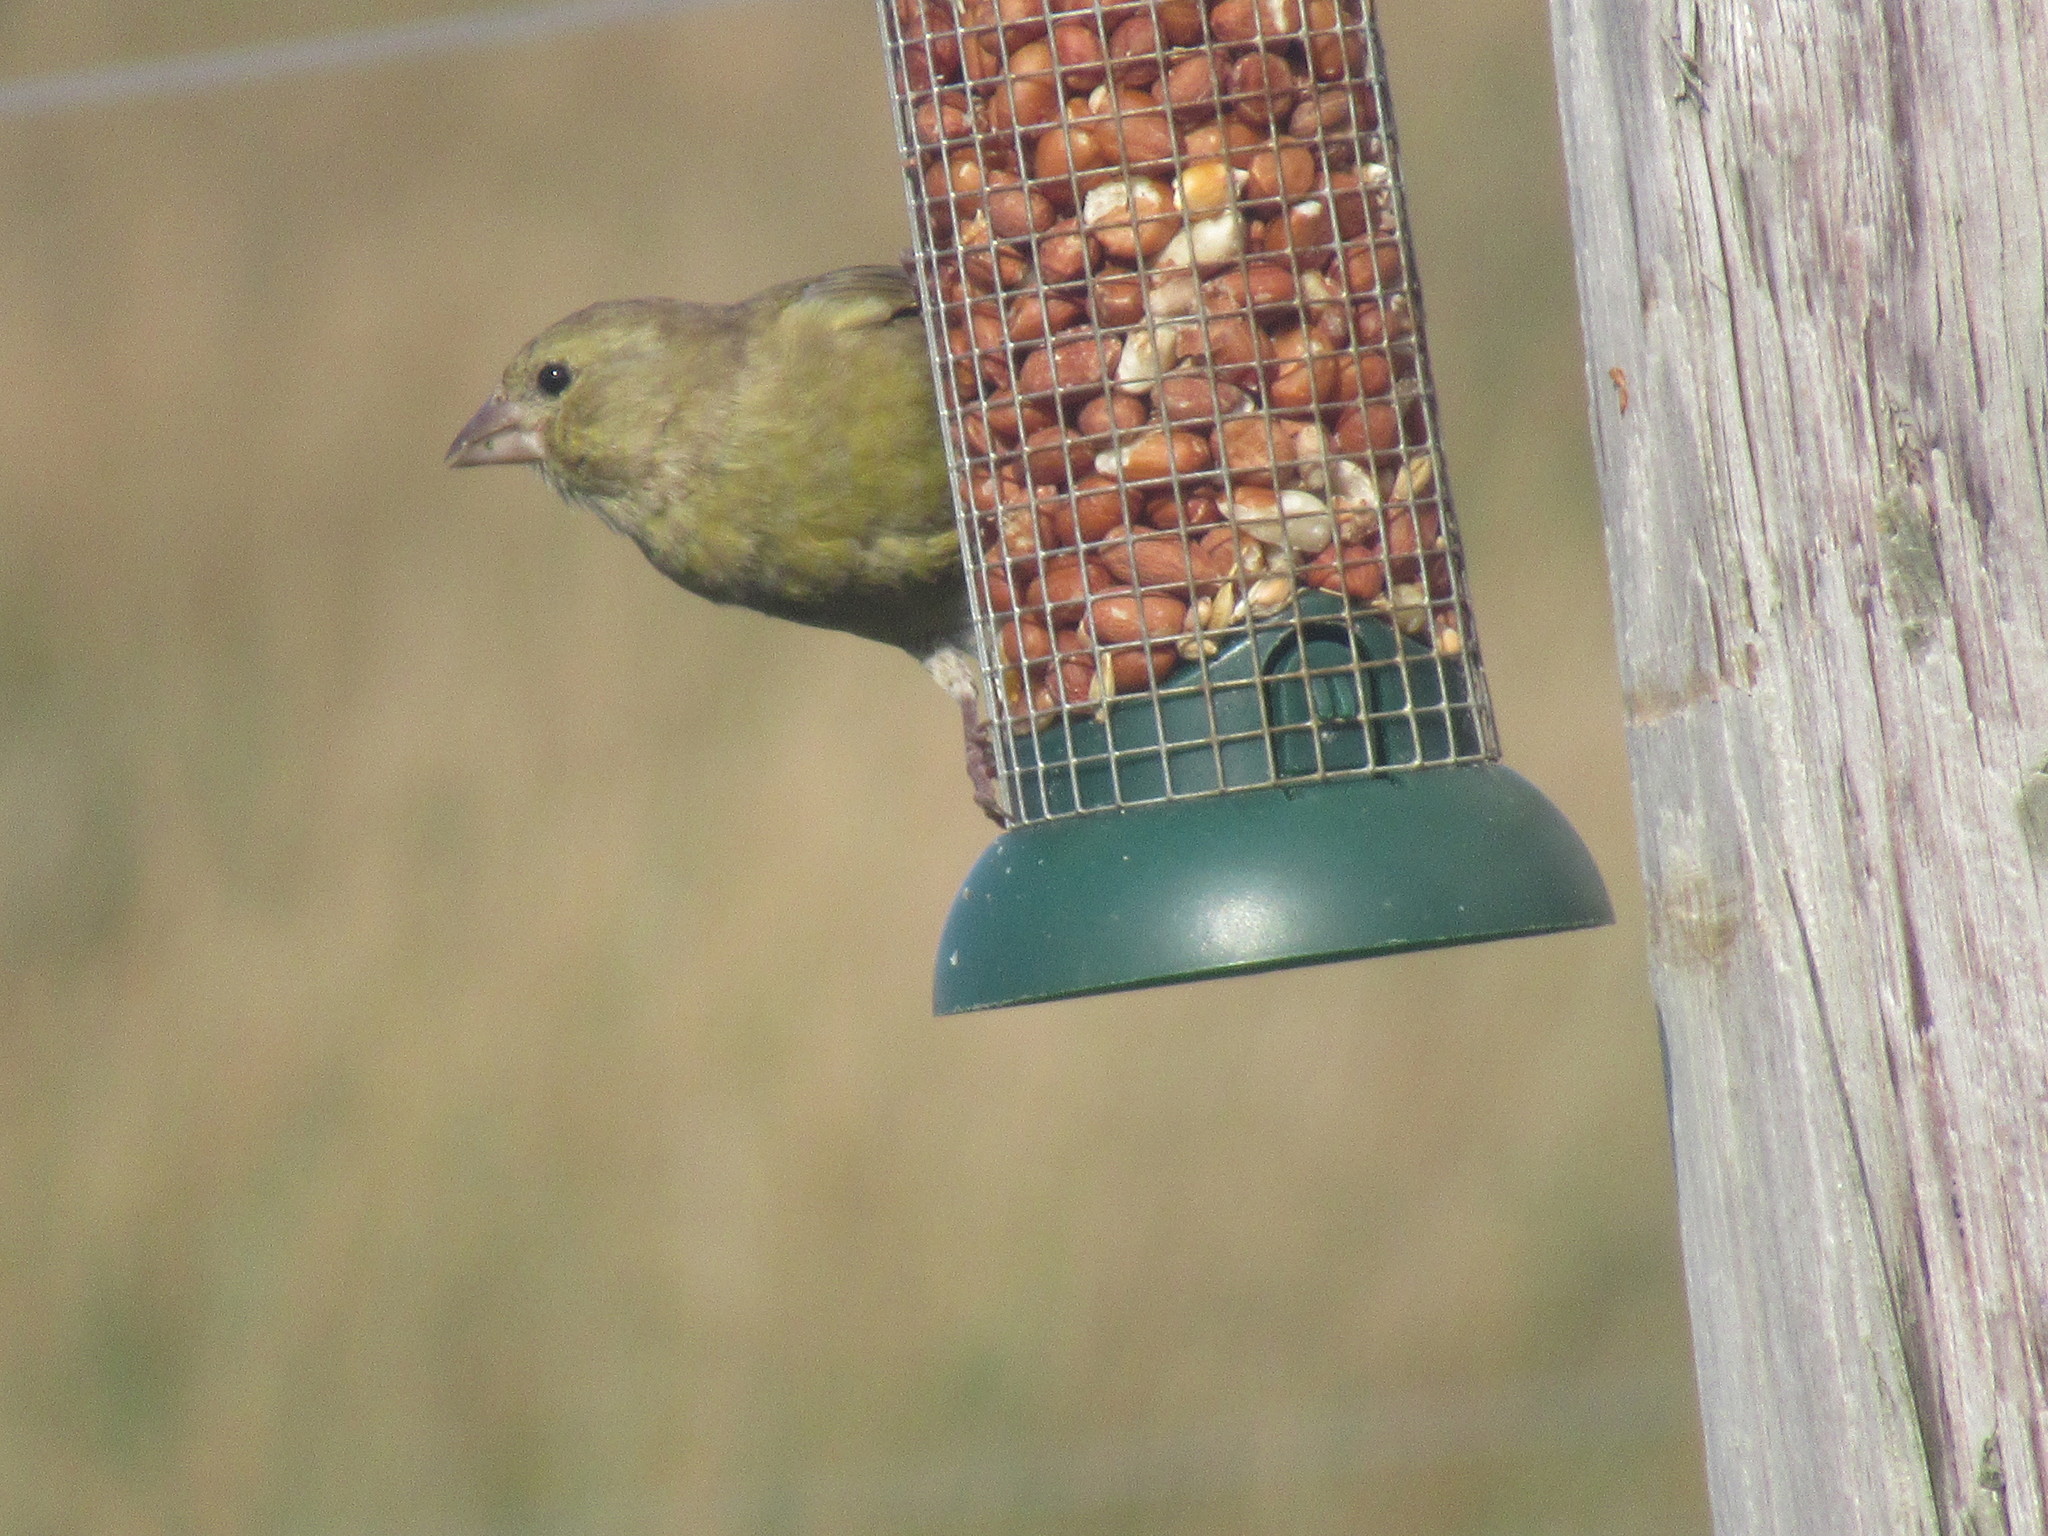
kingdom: Plantae
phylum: Tracheophyta
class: Liliopsida
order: Poales
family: Poaceae
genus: Chloris
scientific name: Chloris chloris
